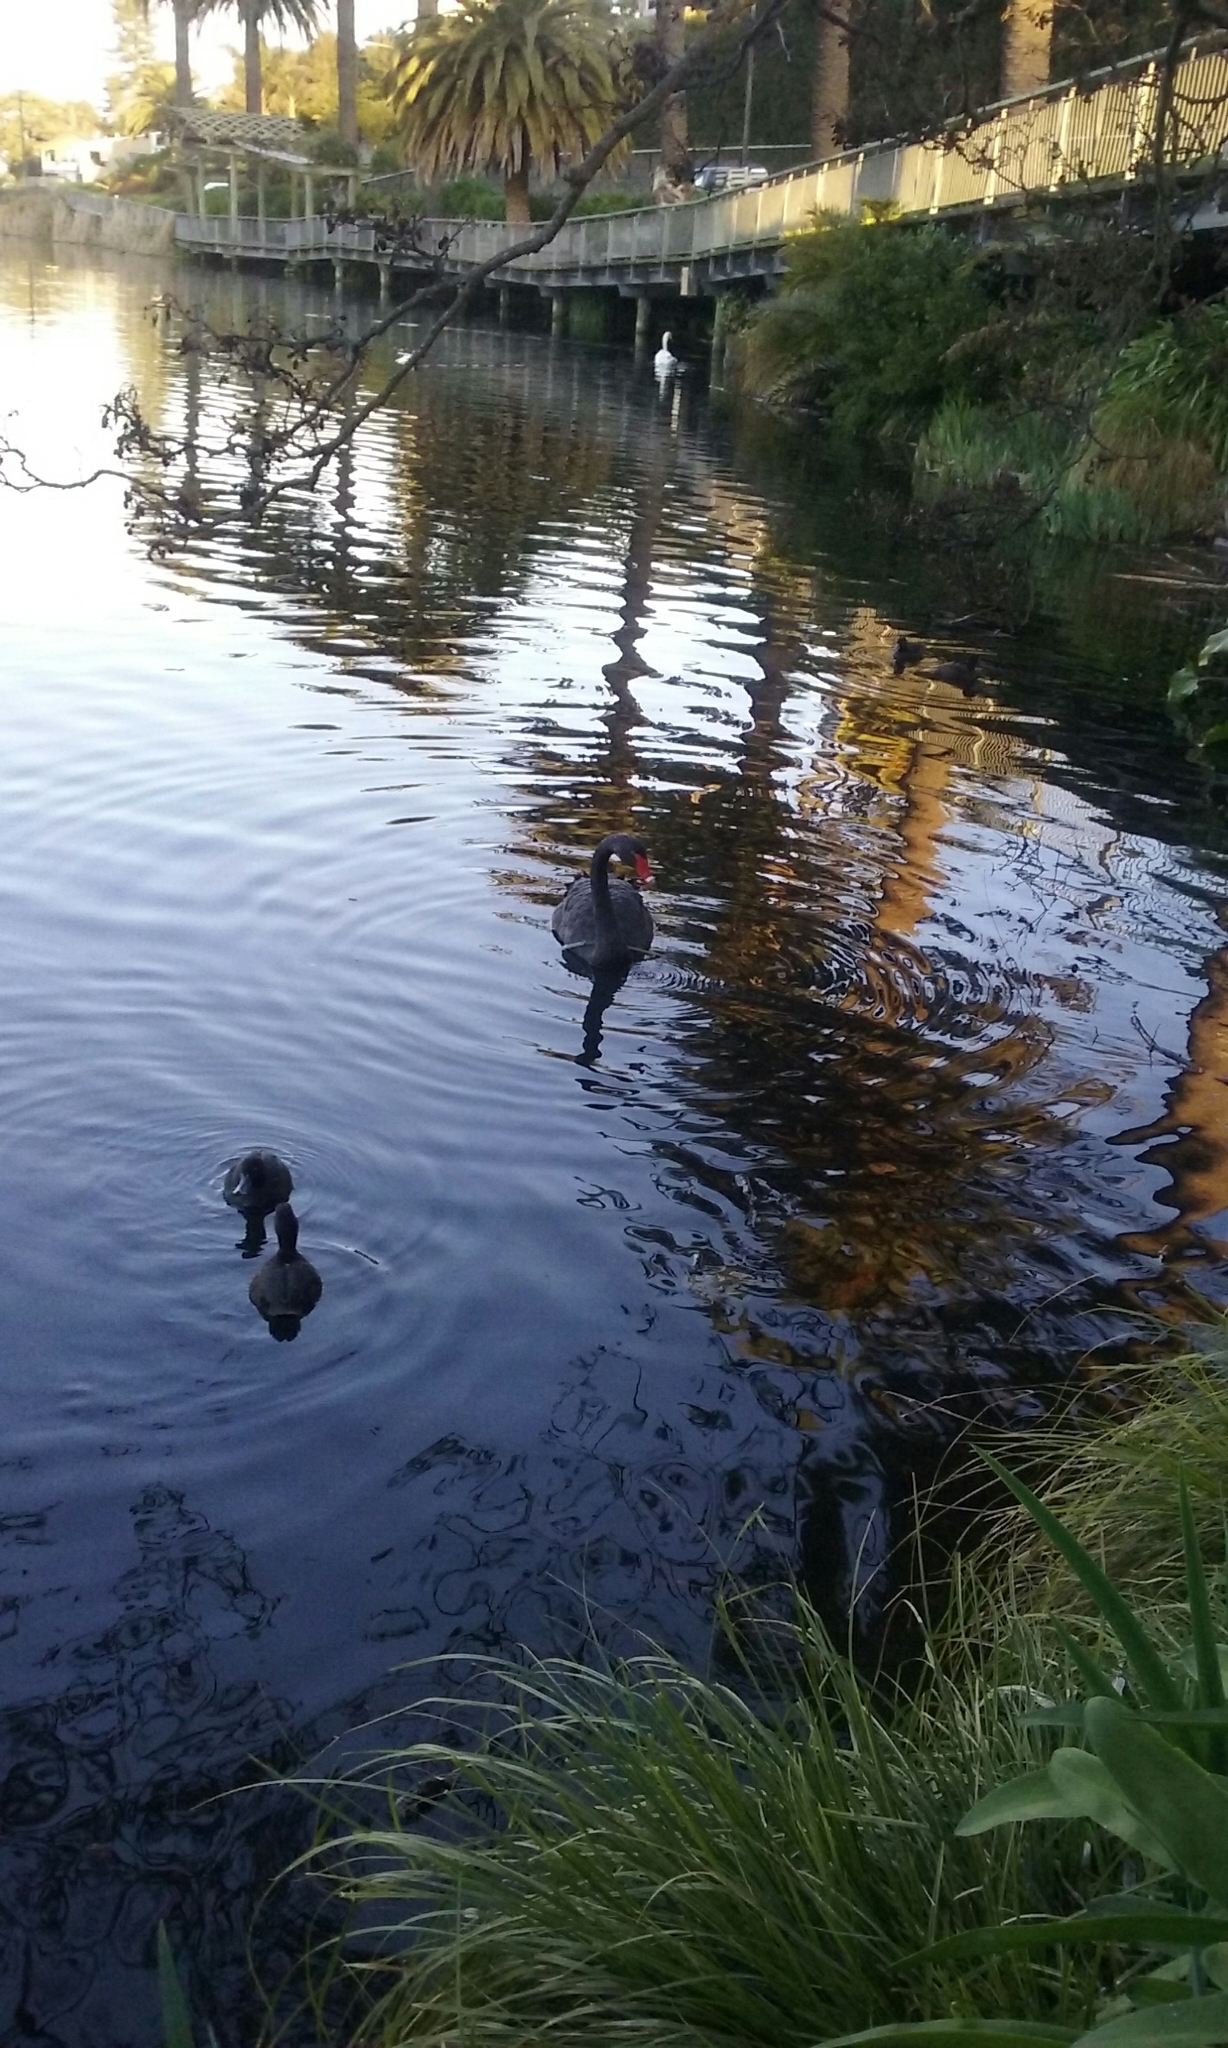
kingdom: Animalia
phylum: Chordata
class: Aves
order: Anseriformes
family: Anatidae
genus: Cygnus
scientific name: Cygnus atratus
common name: Black swan
